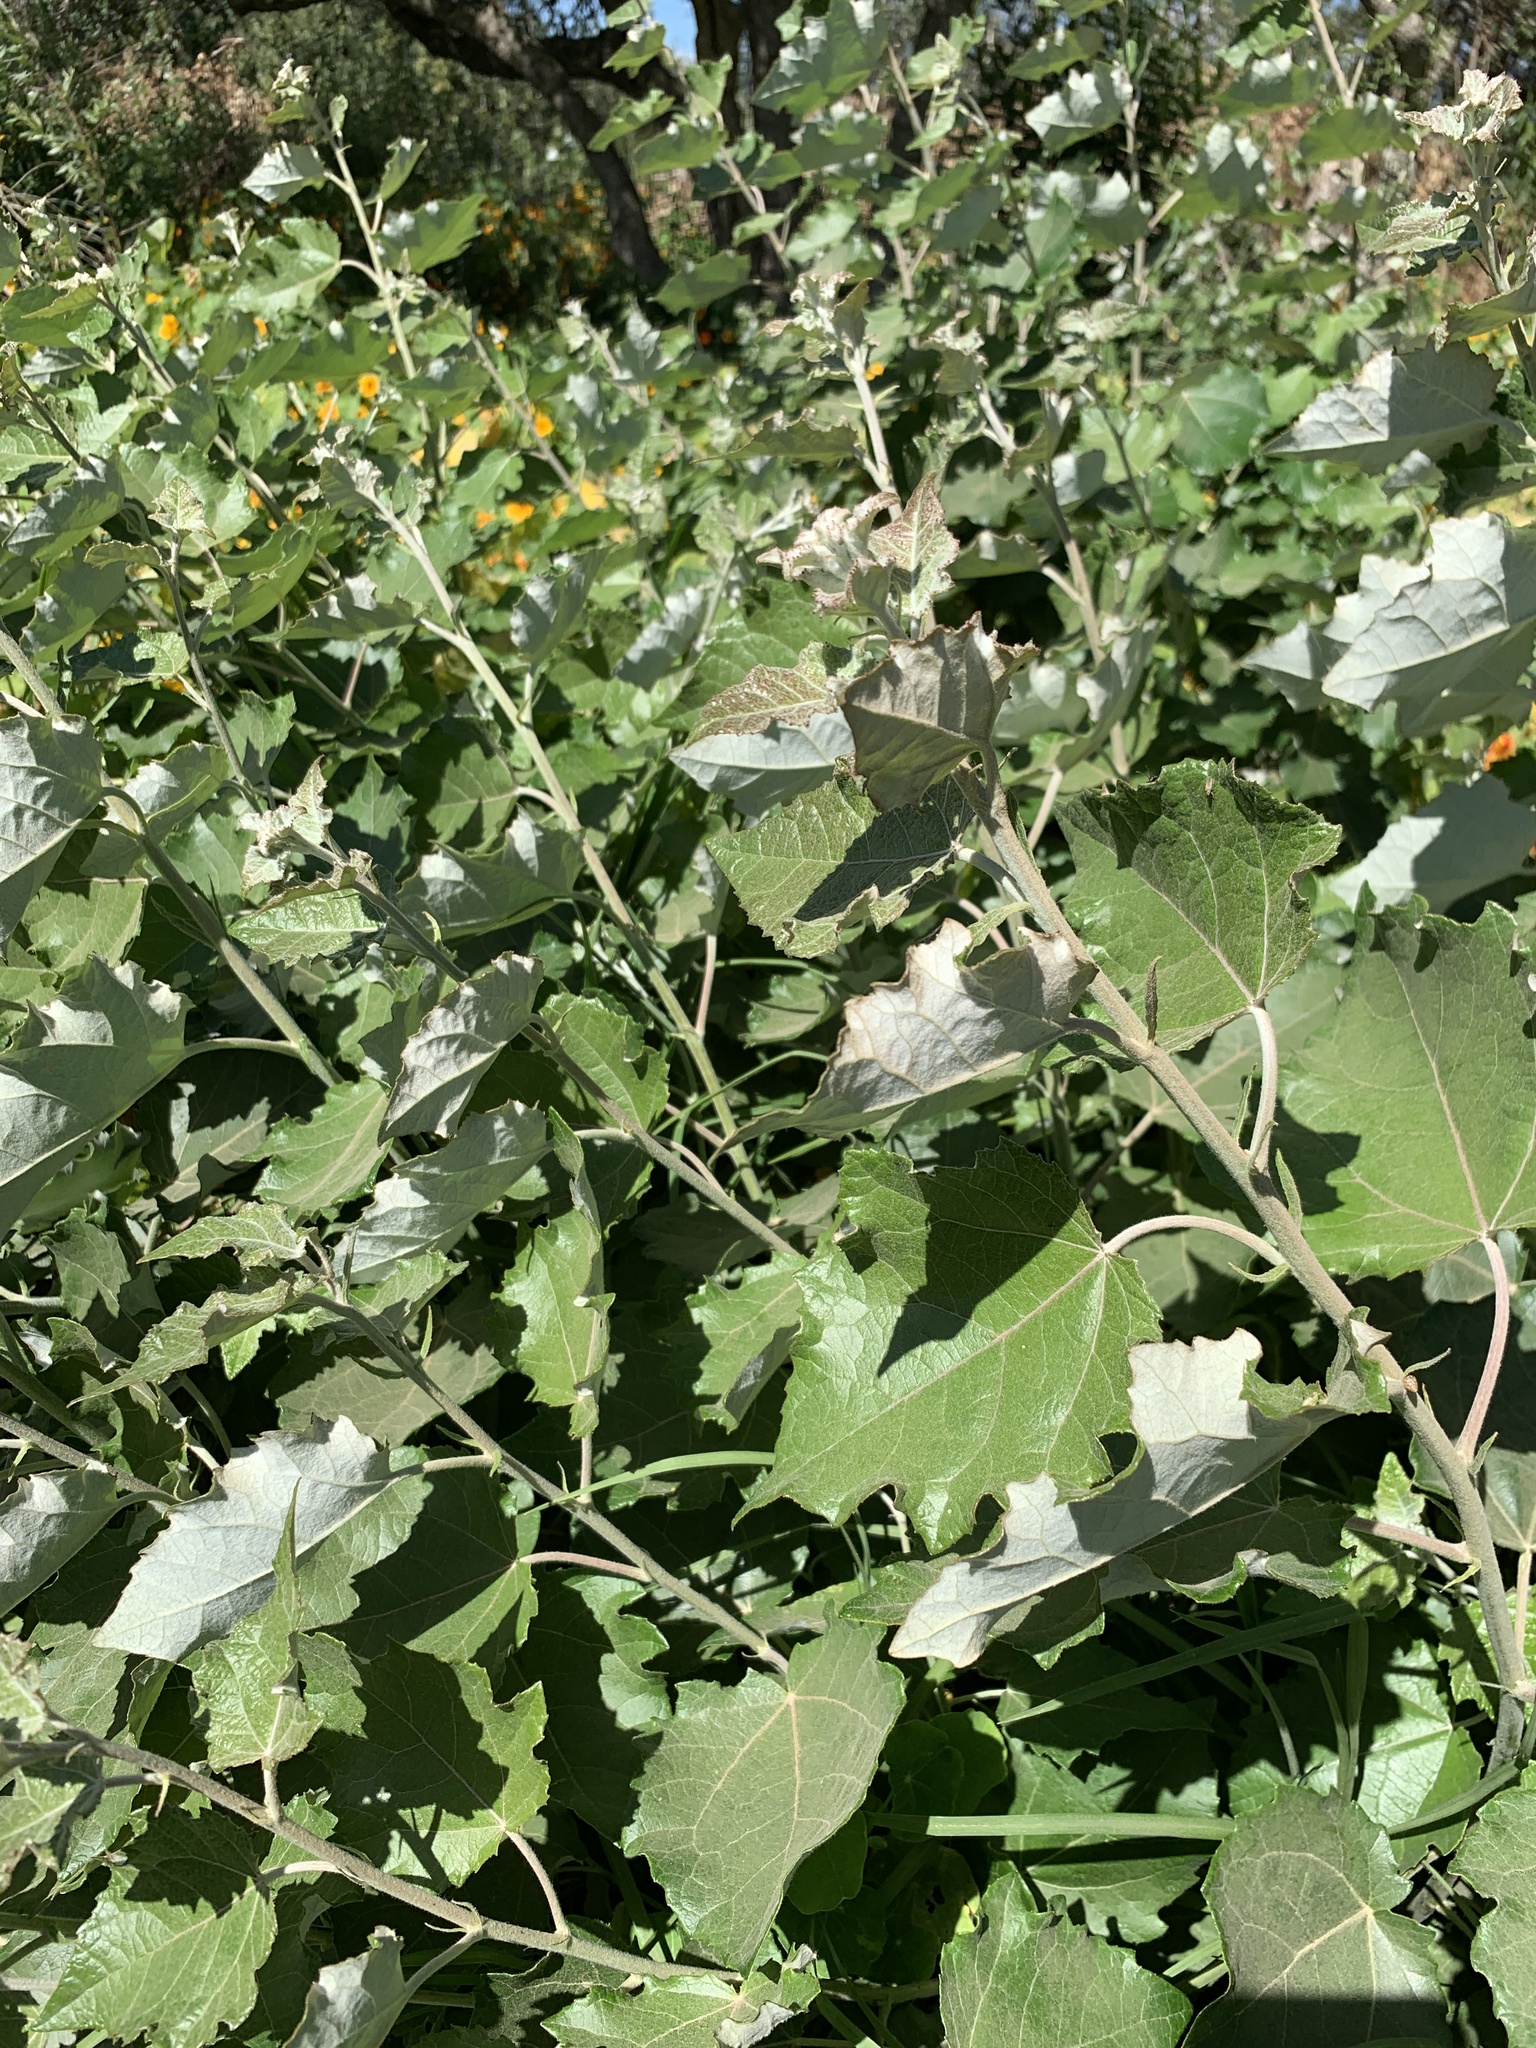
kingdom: Plantae
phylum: Tracheophyta
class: Magnoliopsida
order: Malpighiales
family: Salicaceae
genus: Populus
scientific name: Populus canescens
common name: Gray poplar
